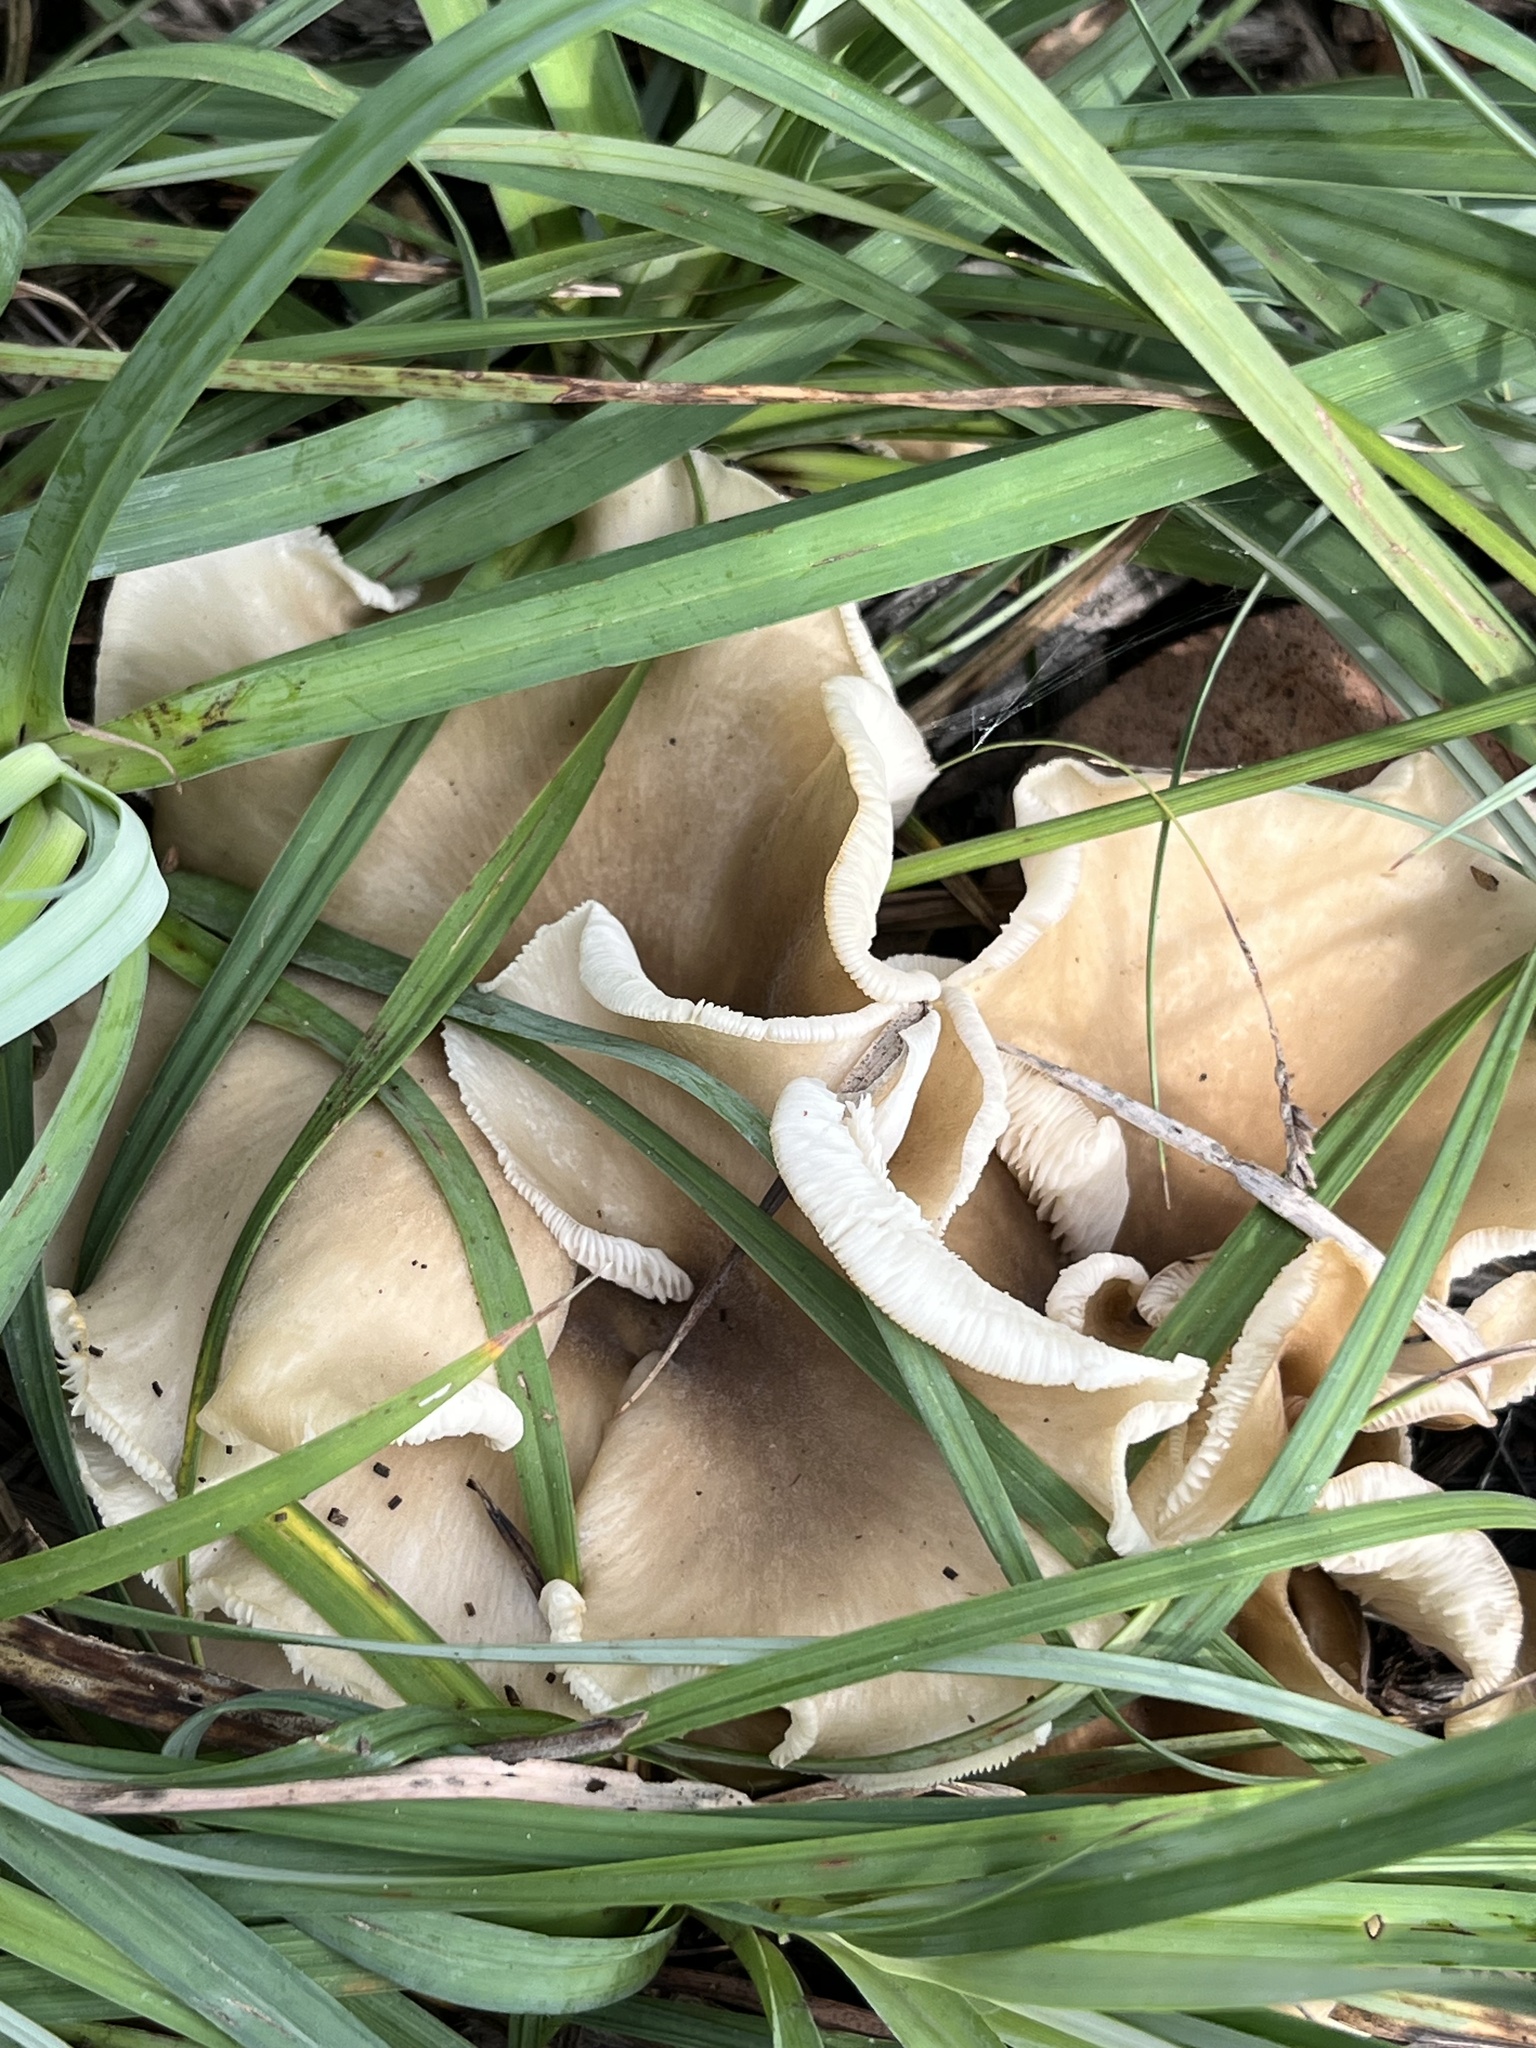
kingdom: Fungi
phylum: Basidiomycota
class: Agaricomycetes
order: Agaricales
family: Pleurotaceae
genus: Hohenbuehelia
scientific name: Hohenbuehelia petaloides
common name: Shoehorn oyster
